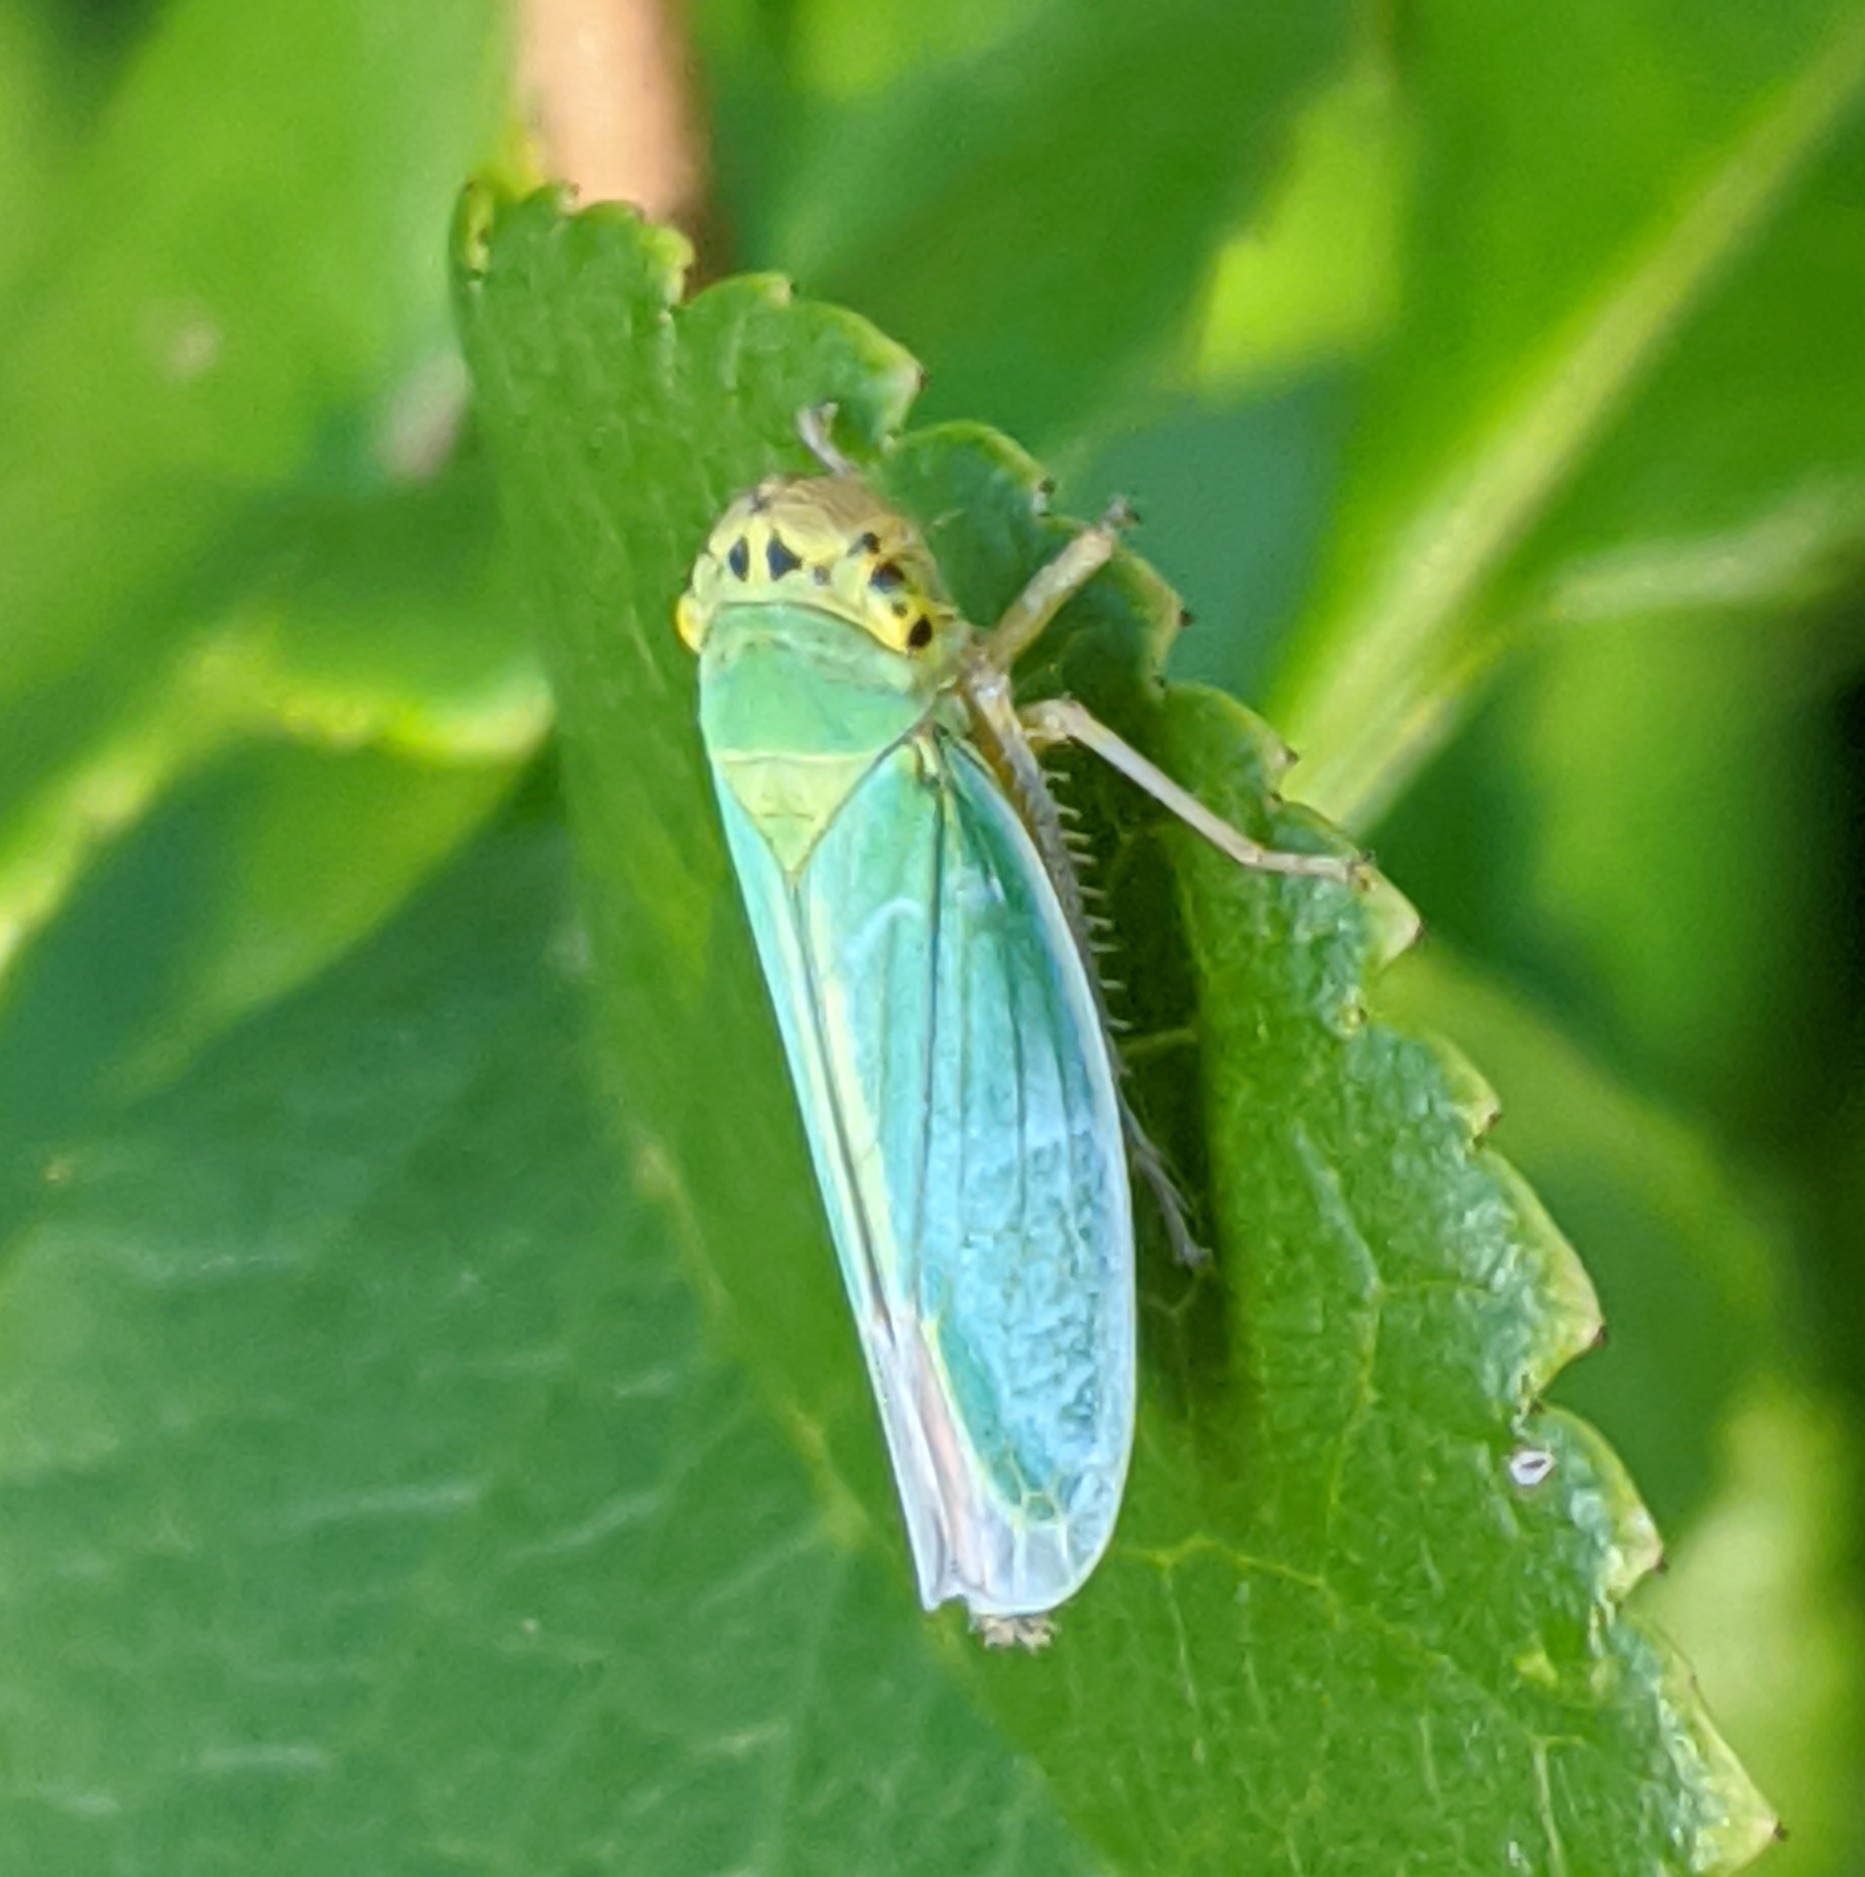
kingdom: Animalia
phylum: Arthropoda
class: Insecta
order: Hemiptera
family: Cicadellidae
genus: Cicadella
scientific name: Cicadella viridis
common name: Leafhopper
